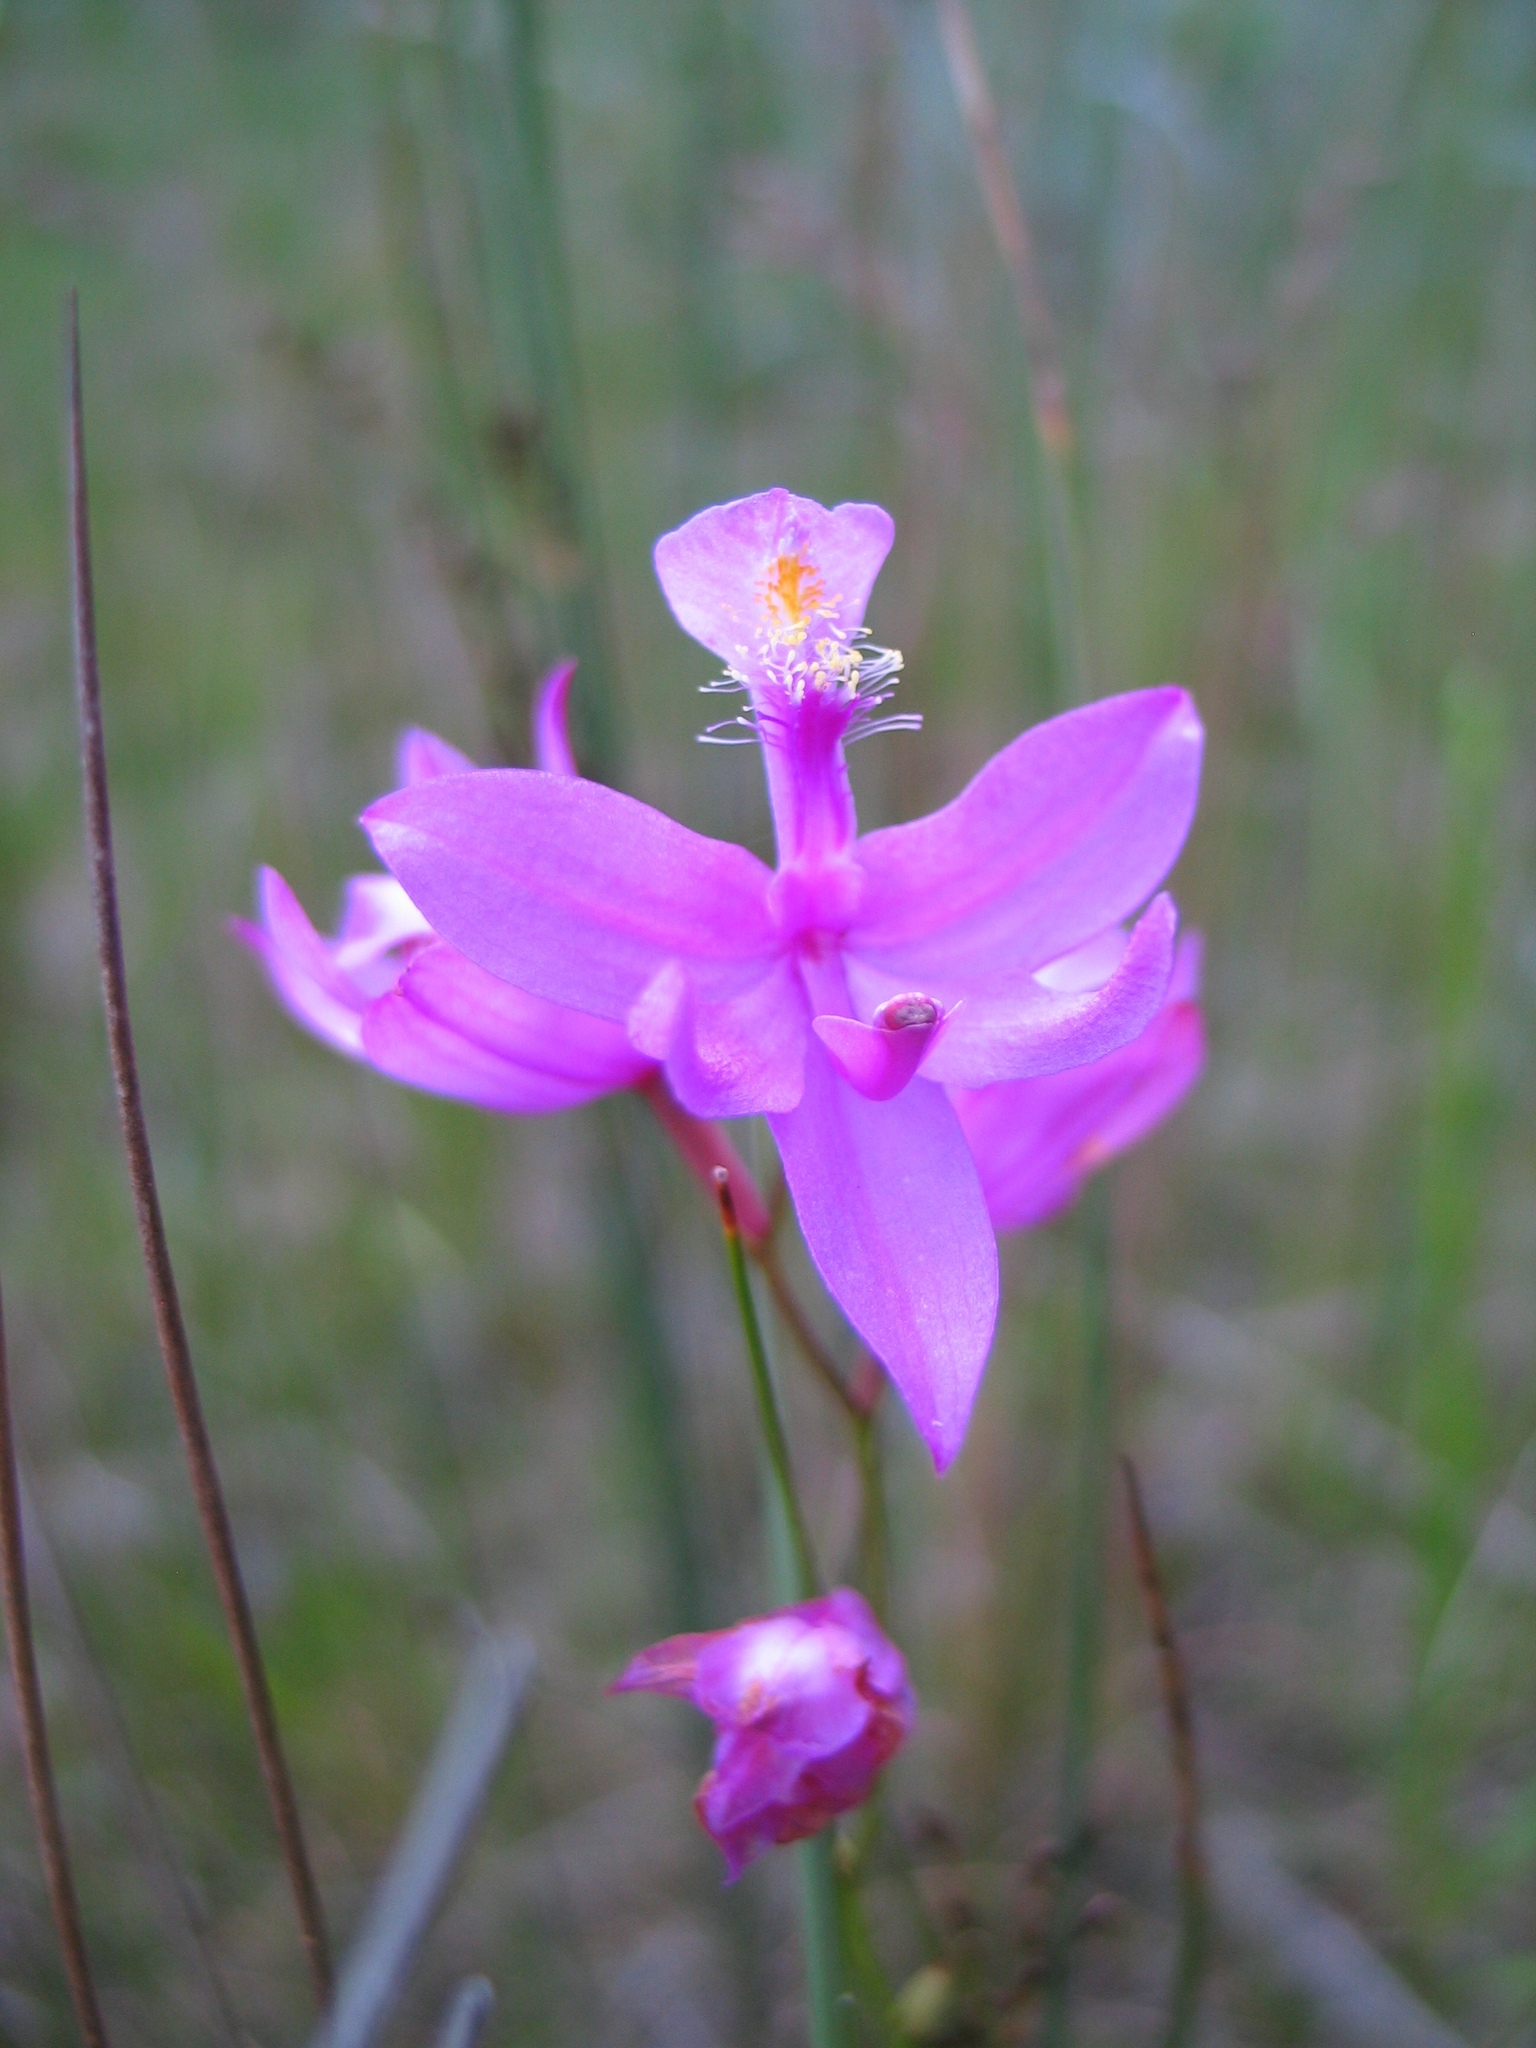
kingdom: Plantae
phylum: Tracheophyta
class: Liliopsida
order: Asparagales
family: Orchidaceae
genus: Calopogon
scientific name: Calopogon tuberosus
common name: Grass-pink
